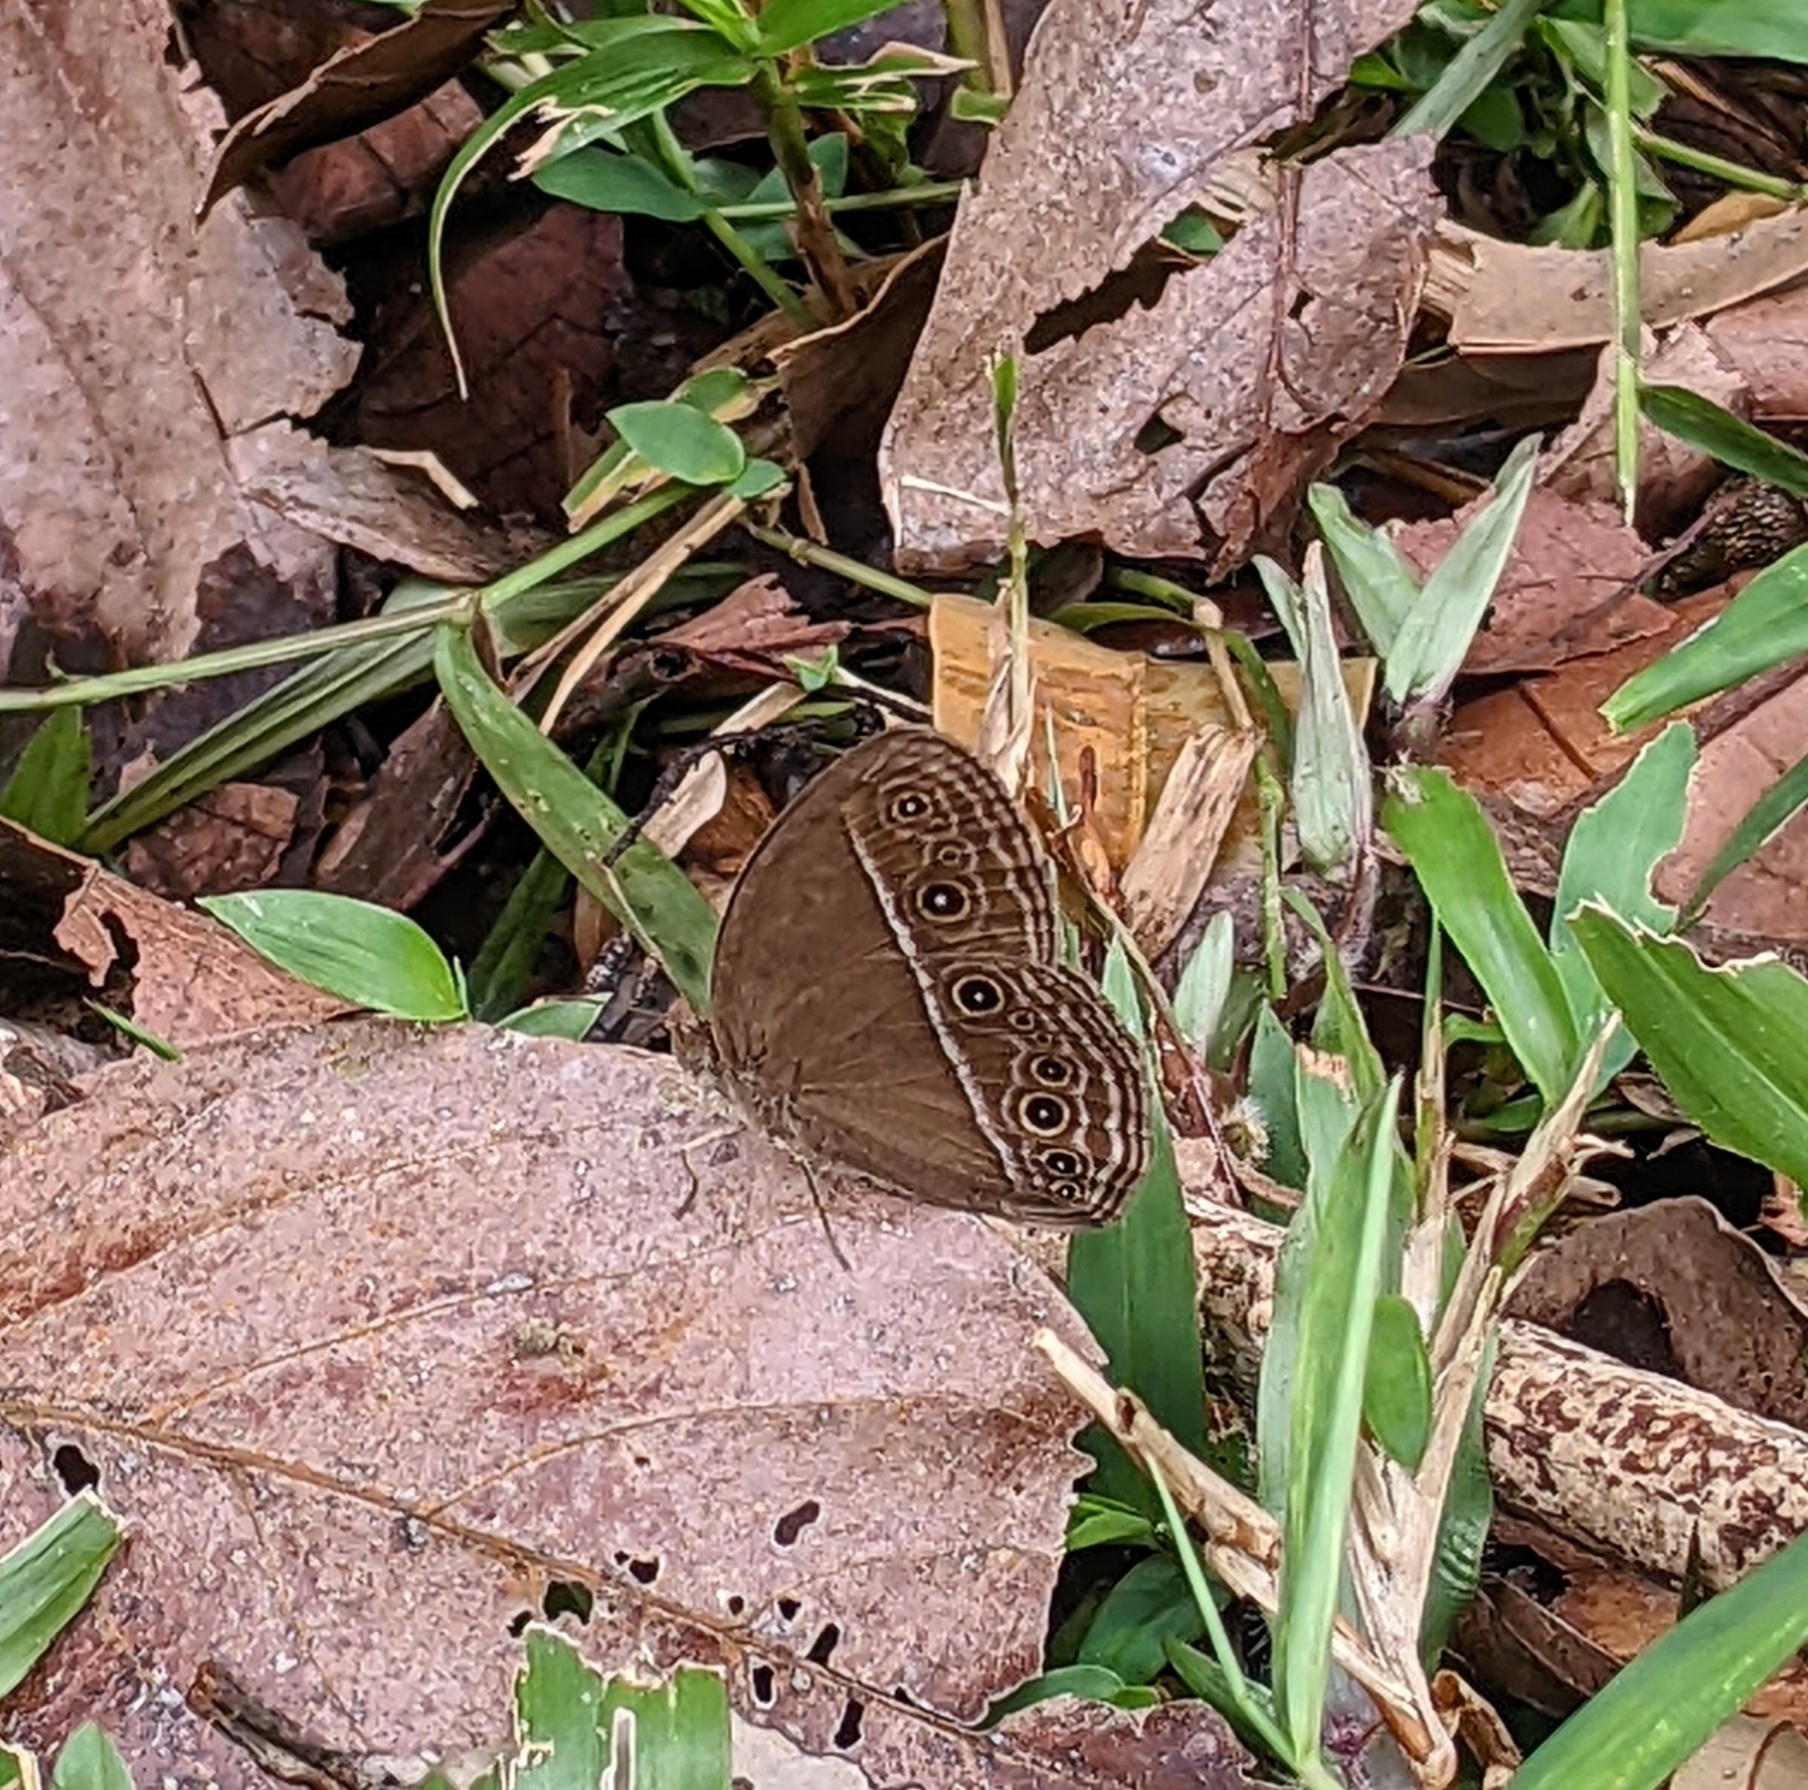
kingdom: Animalia
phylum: Arthropoda
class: Insecta
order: Lepidoptera
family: Nymphalidae
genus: Mycalesis
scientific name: Mycalesis perseus
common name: Dingy bushbrown
